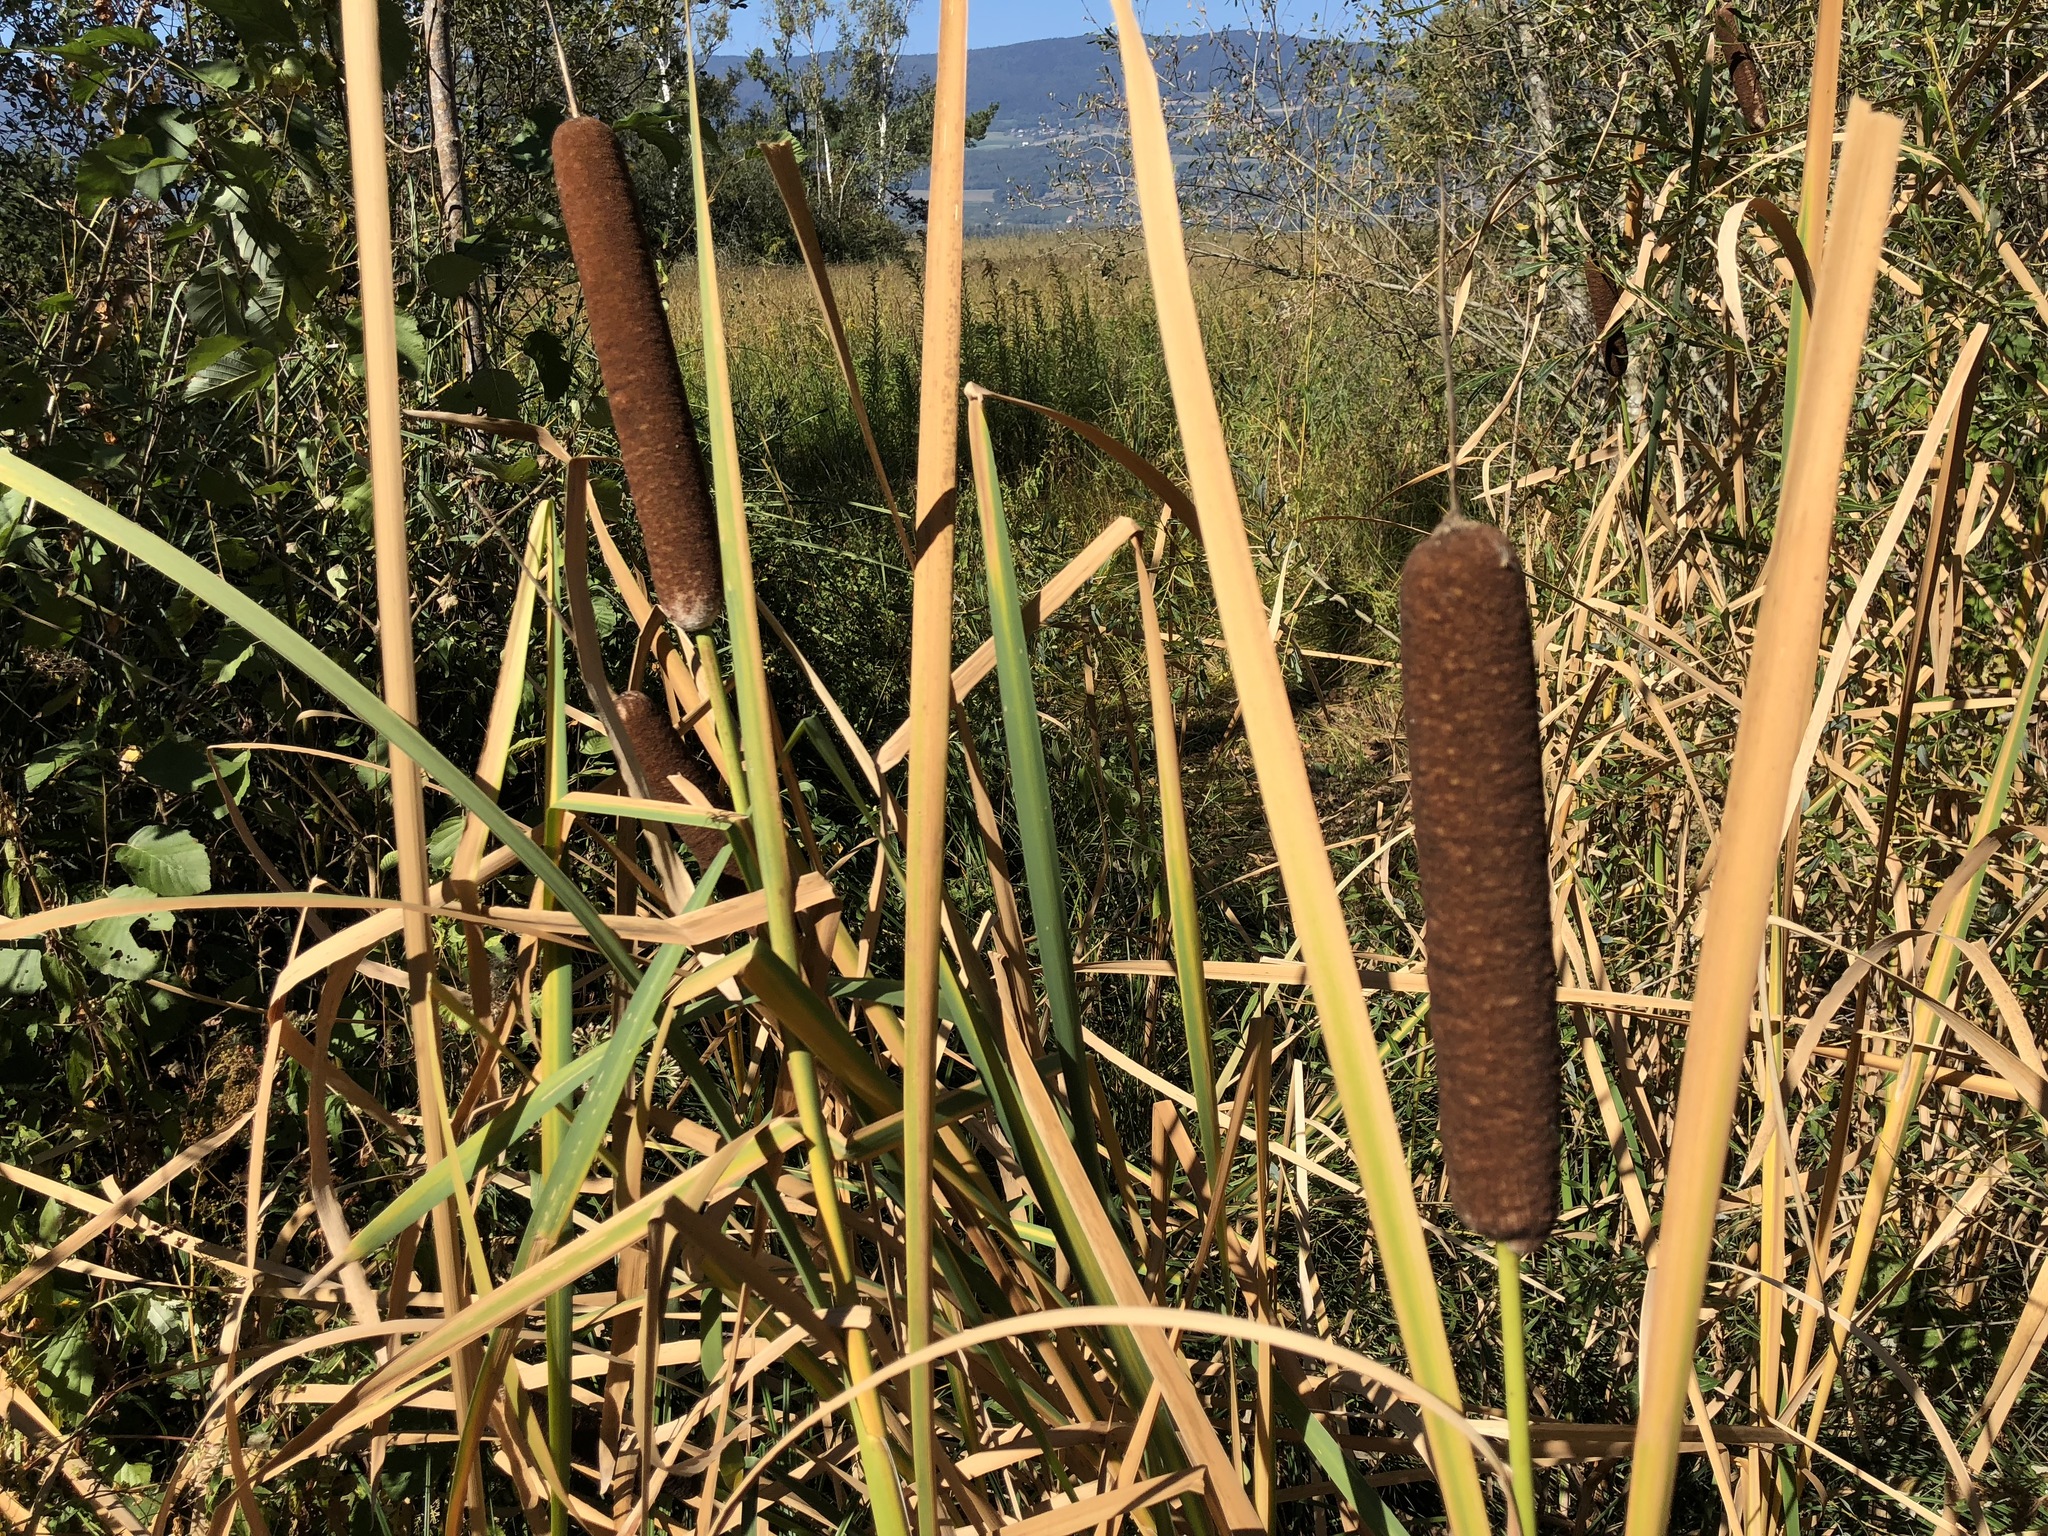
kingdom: Plantae
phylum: Tracheophyta
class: Liliopsida
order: Poales
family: Typhaceae
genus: Typha
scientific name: Typha latifolia
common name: Broadleaf cattail
